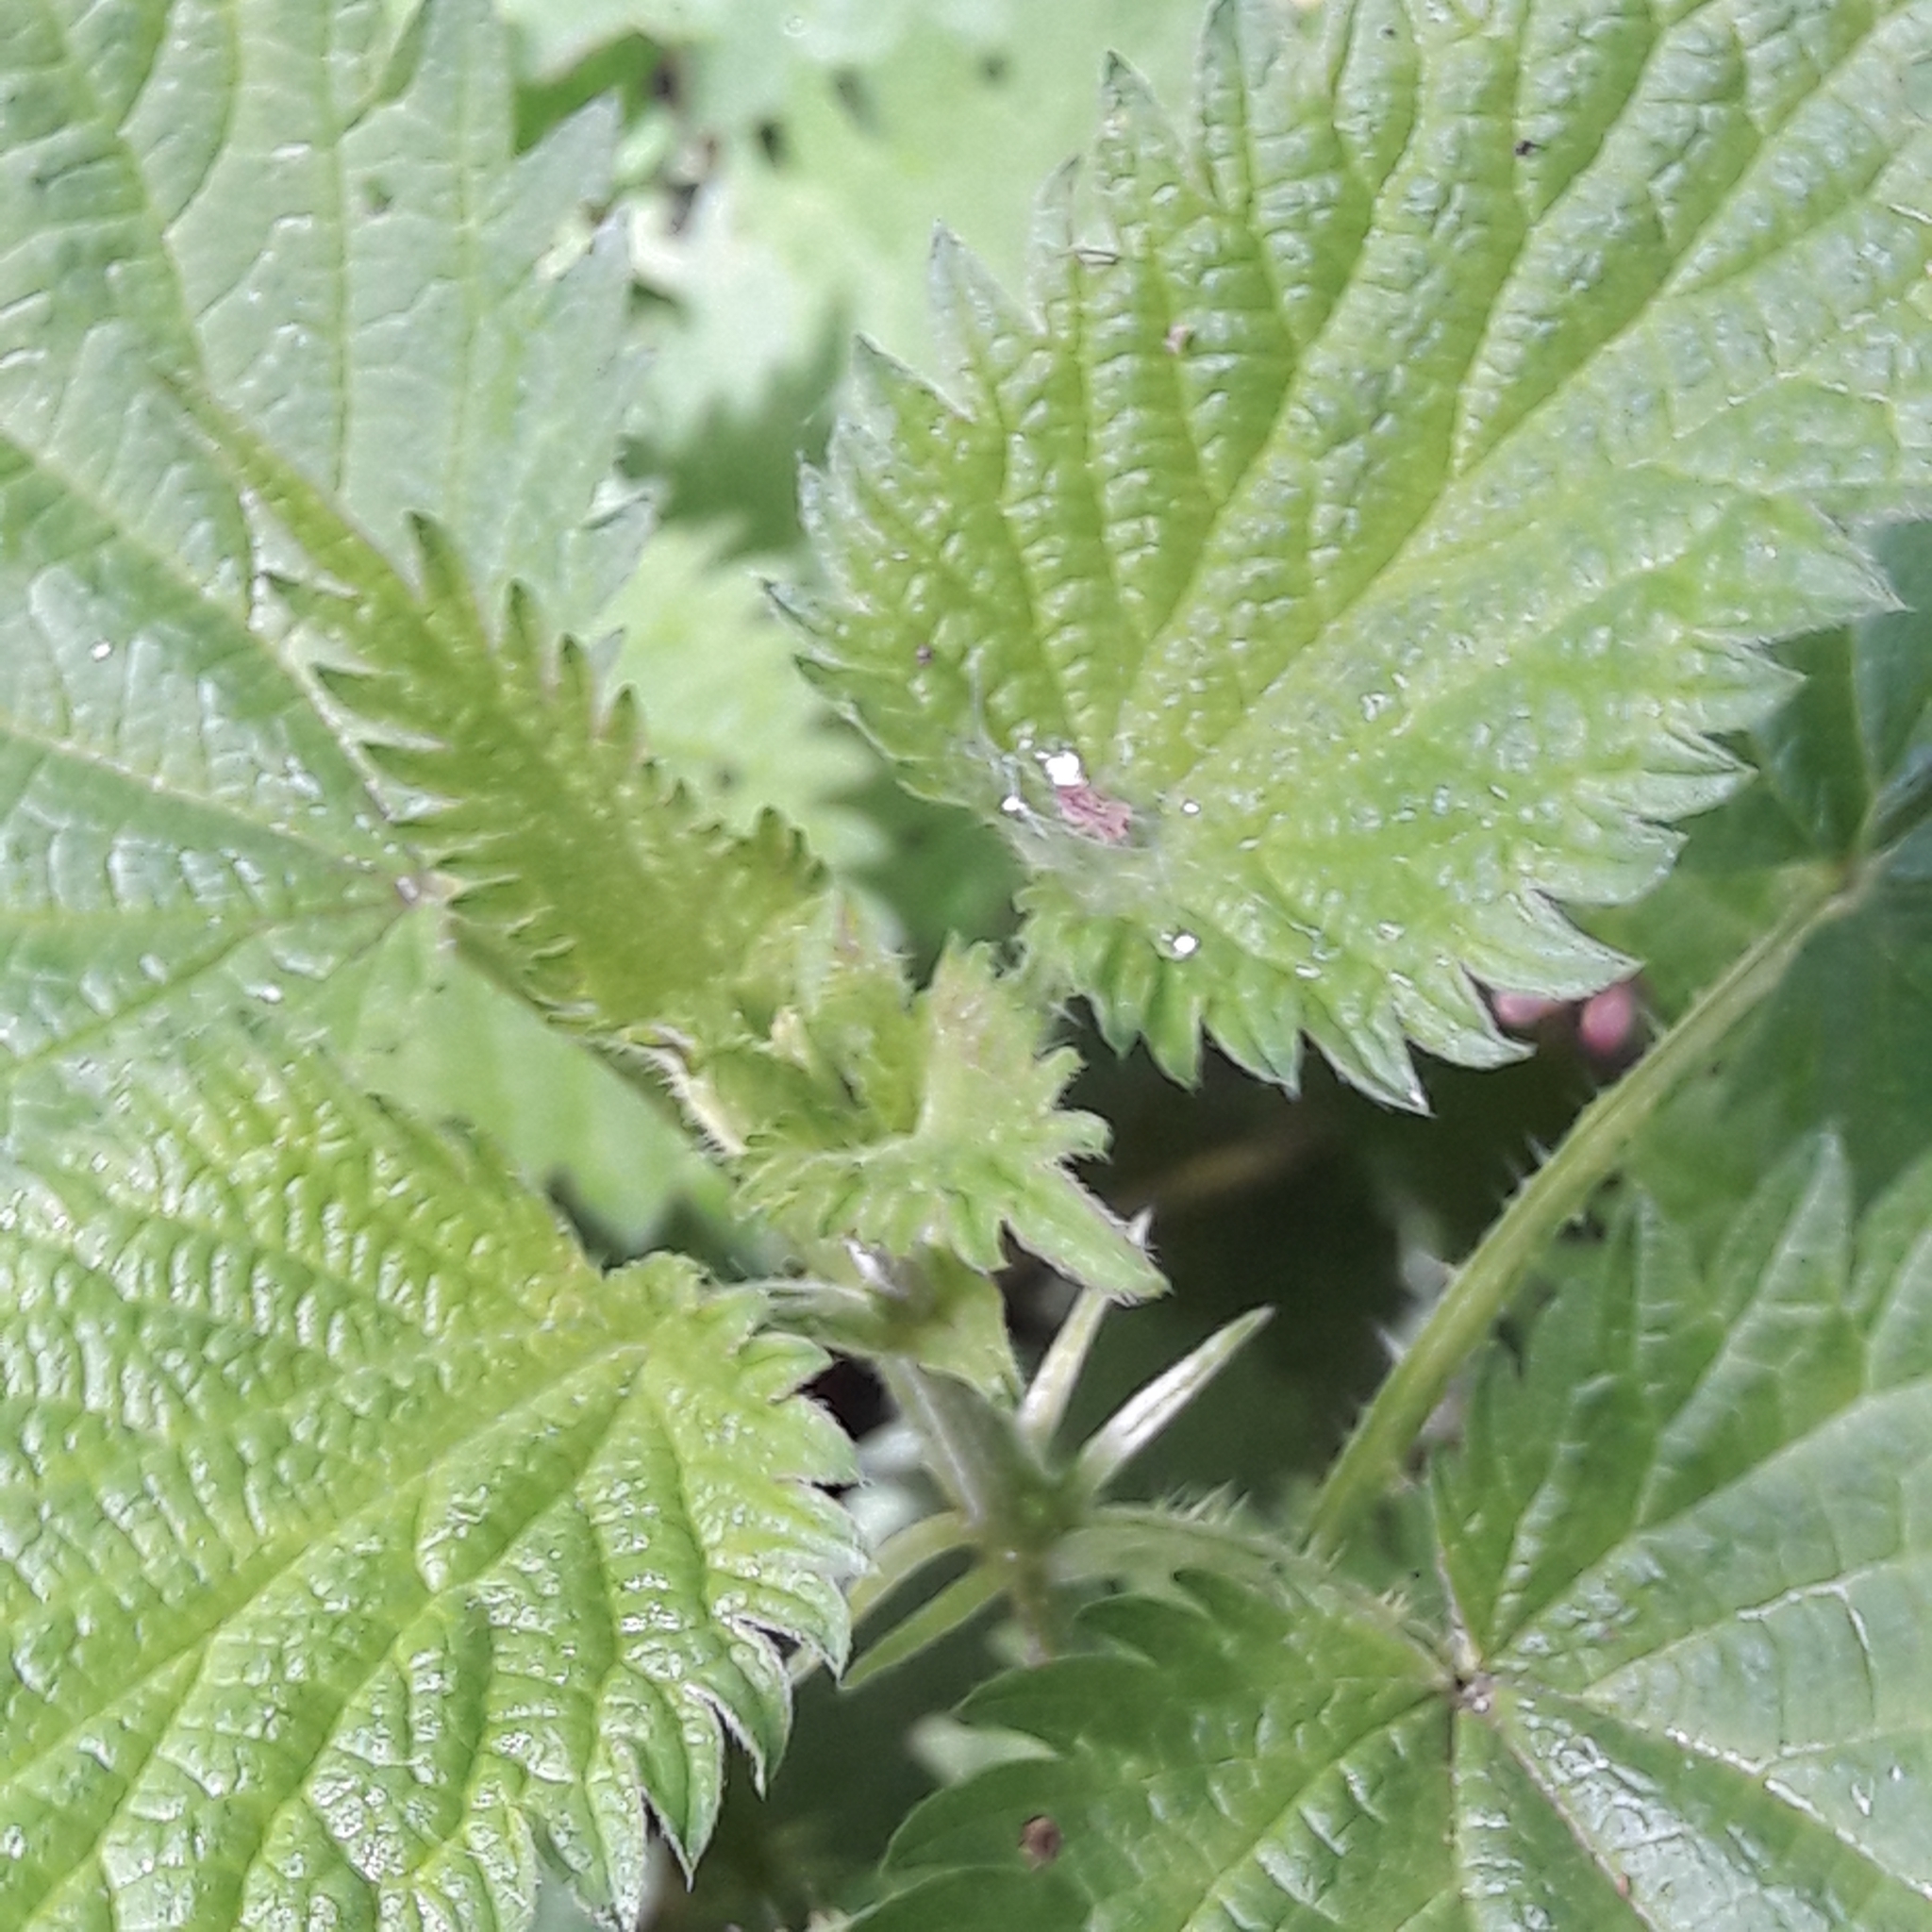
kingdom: Plantae
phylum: Tracheophyta
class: Magnoliopsida
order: Rosales
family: Urticaceae
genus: Urtica
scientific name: Urtica dioica
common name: Common nettle
